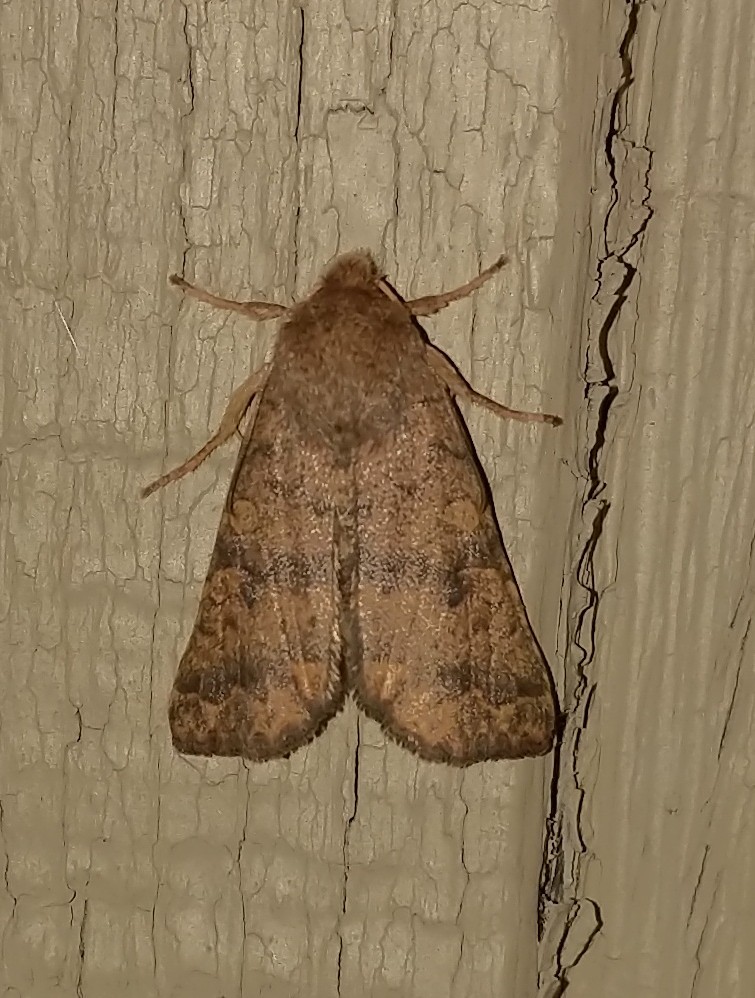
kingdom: Animalia
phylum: Arthropoda
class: Insecta
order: Lepidoptera
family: Noctuidae
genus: Agrochola
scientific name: Agrochola bicolorago
